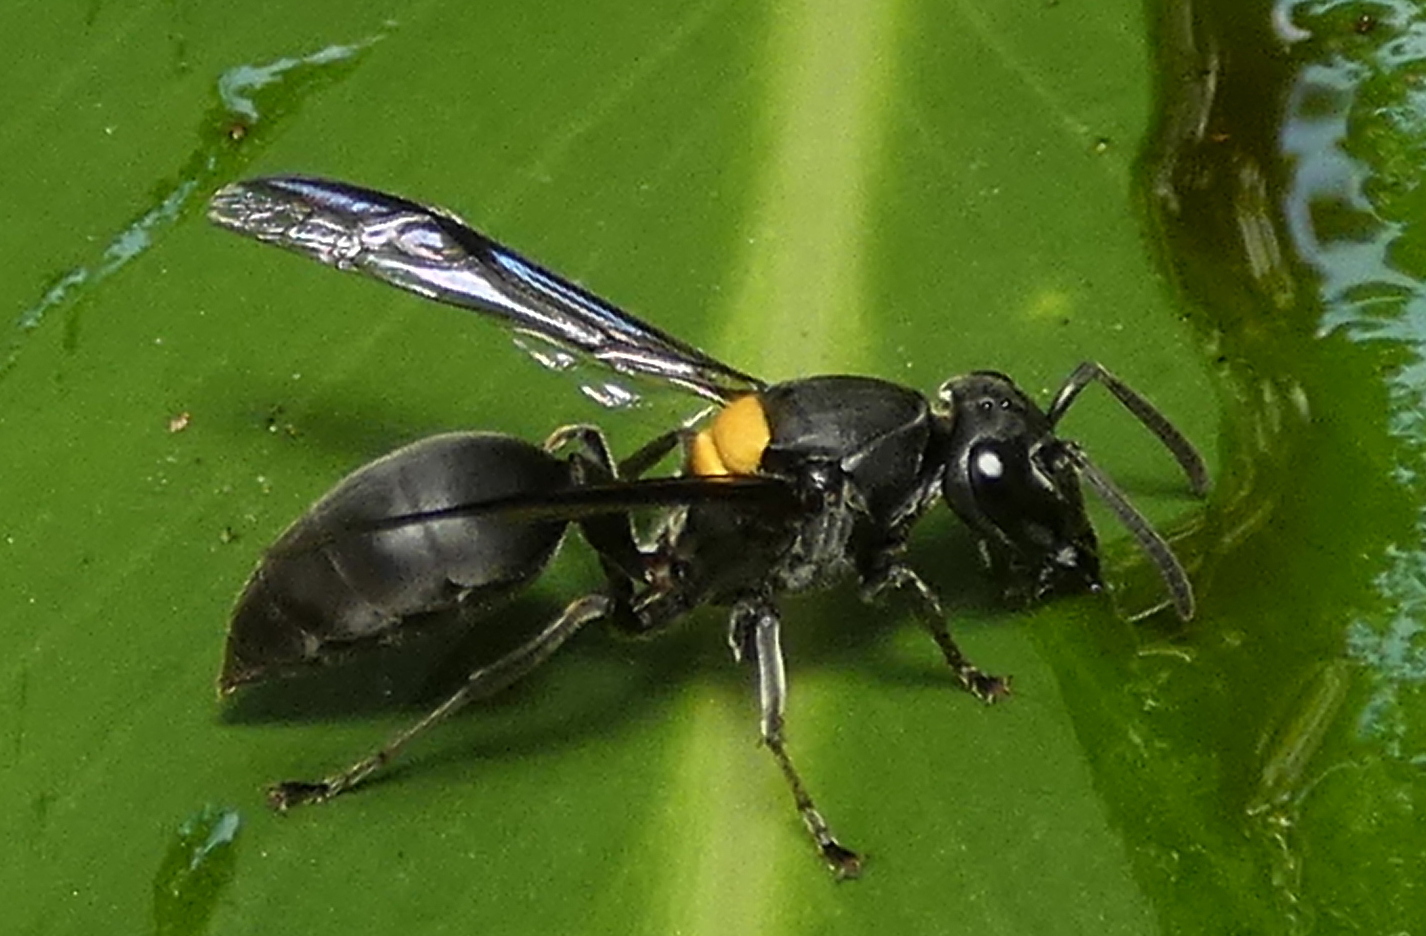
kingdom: Animalia
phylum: Arthropoda
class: Insecta
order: Hymenoptera
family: Eumenidae
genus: Polybia
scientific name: Polybia jurinei
